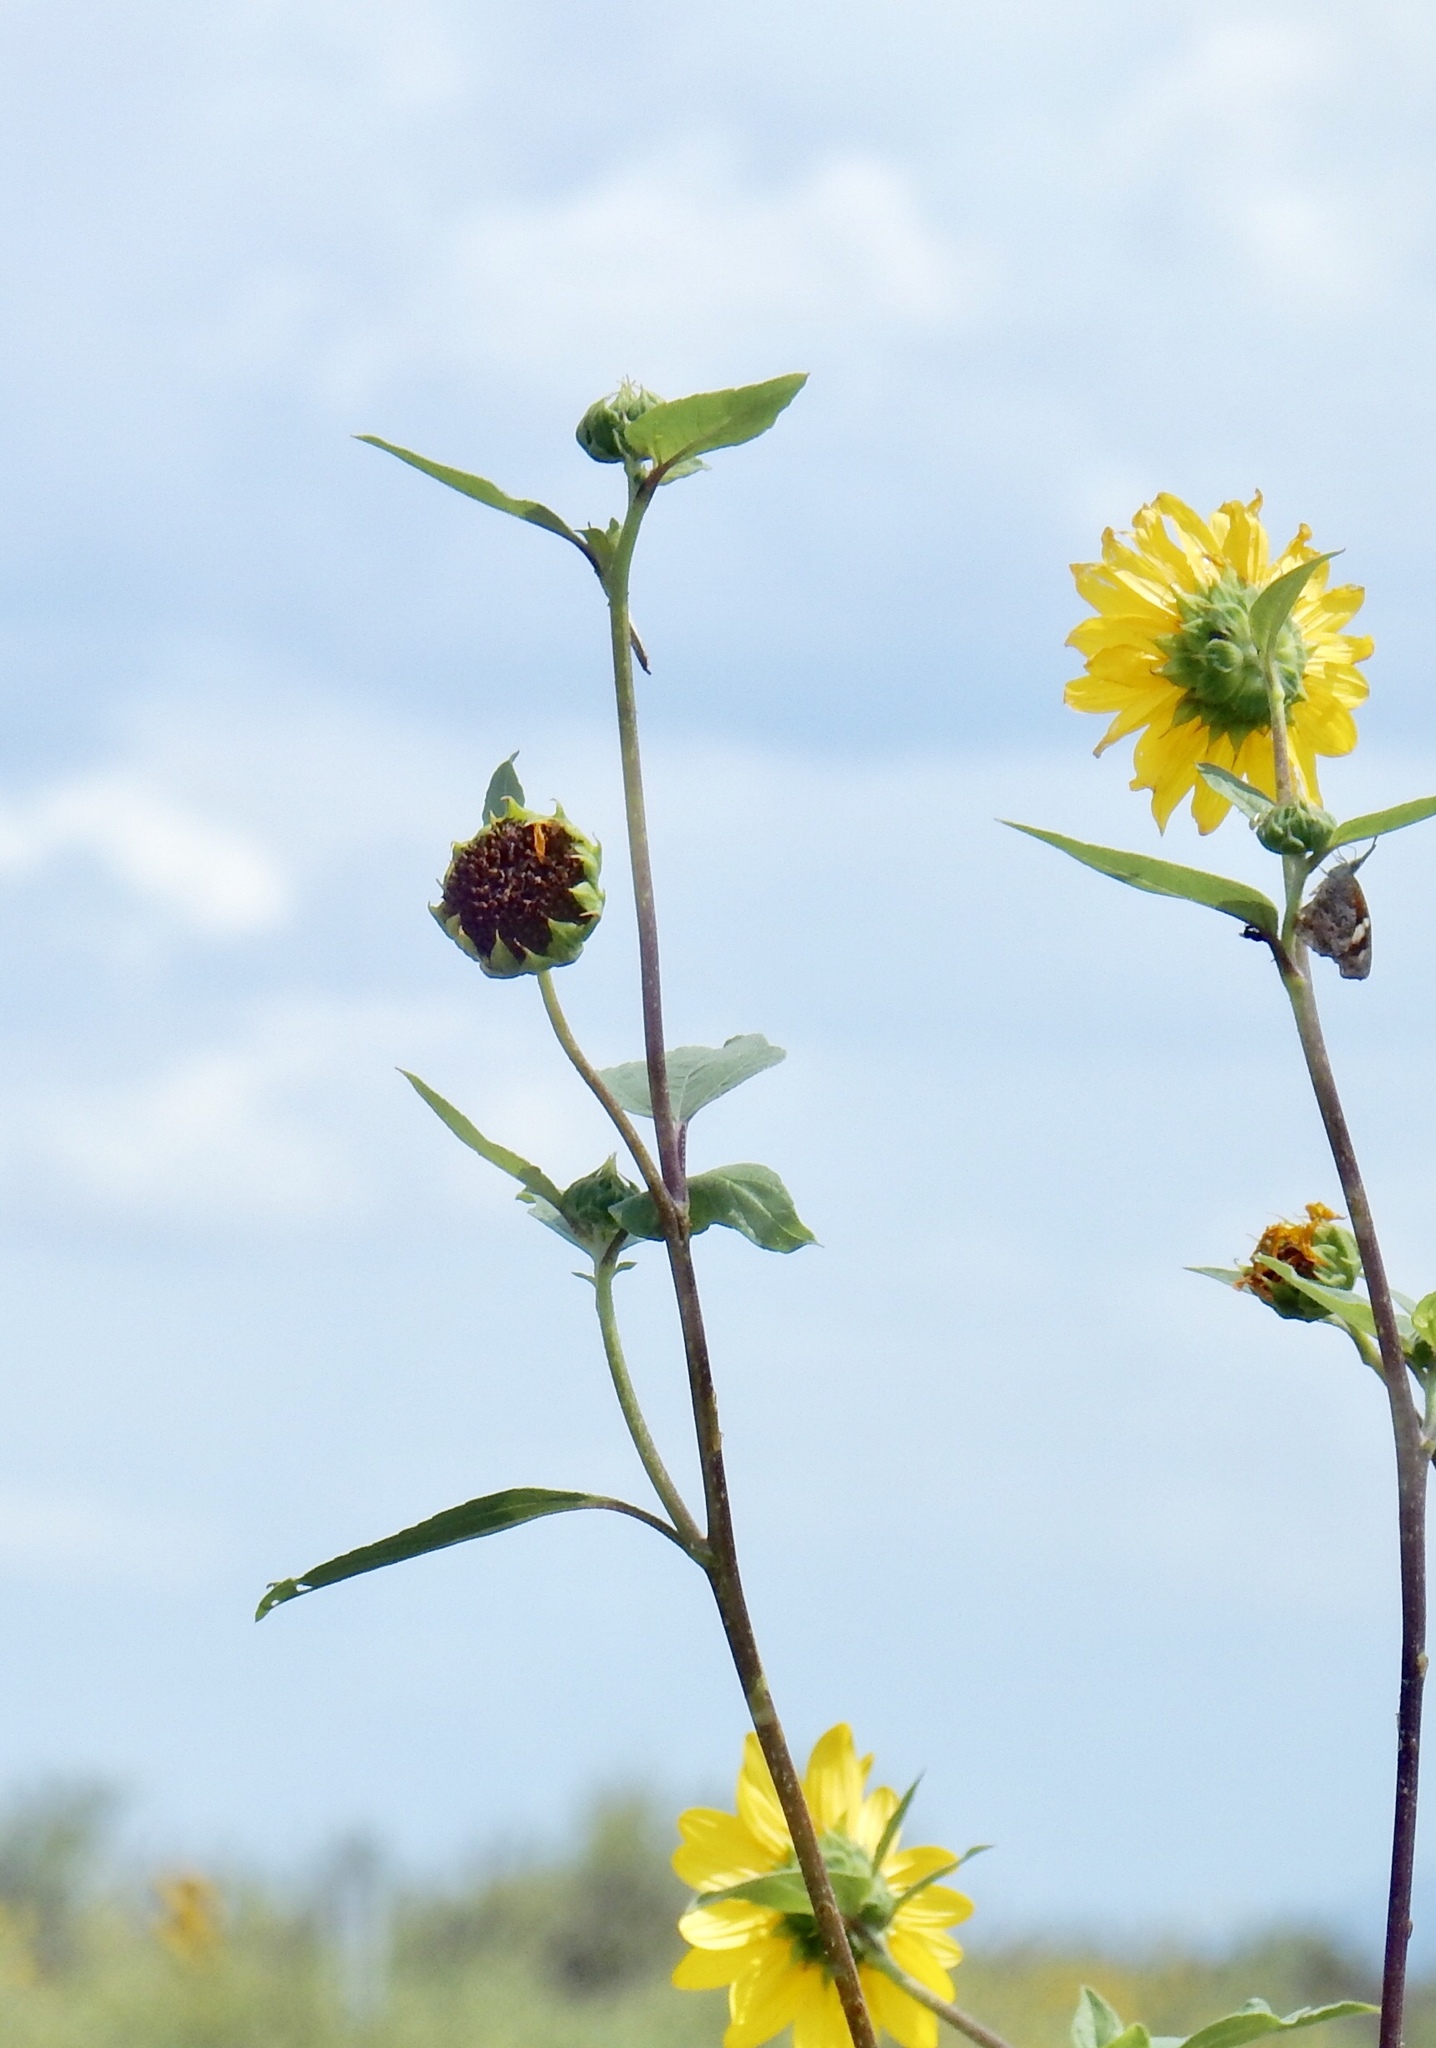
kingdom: Plantae
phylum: Tracheophyta
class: Magnoliopsida
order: Asterales
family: Asteraceae
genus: Helianthus
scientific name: Helianthus annuus
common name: Sunflower
